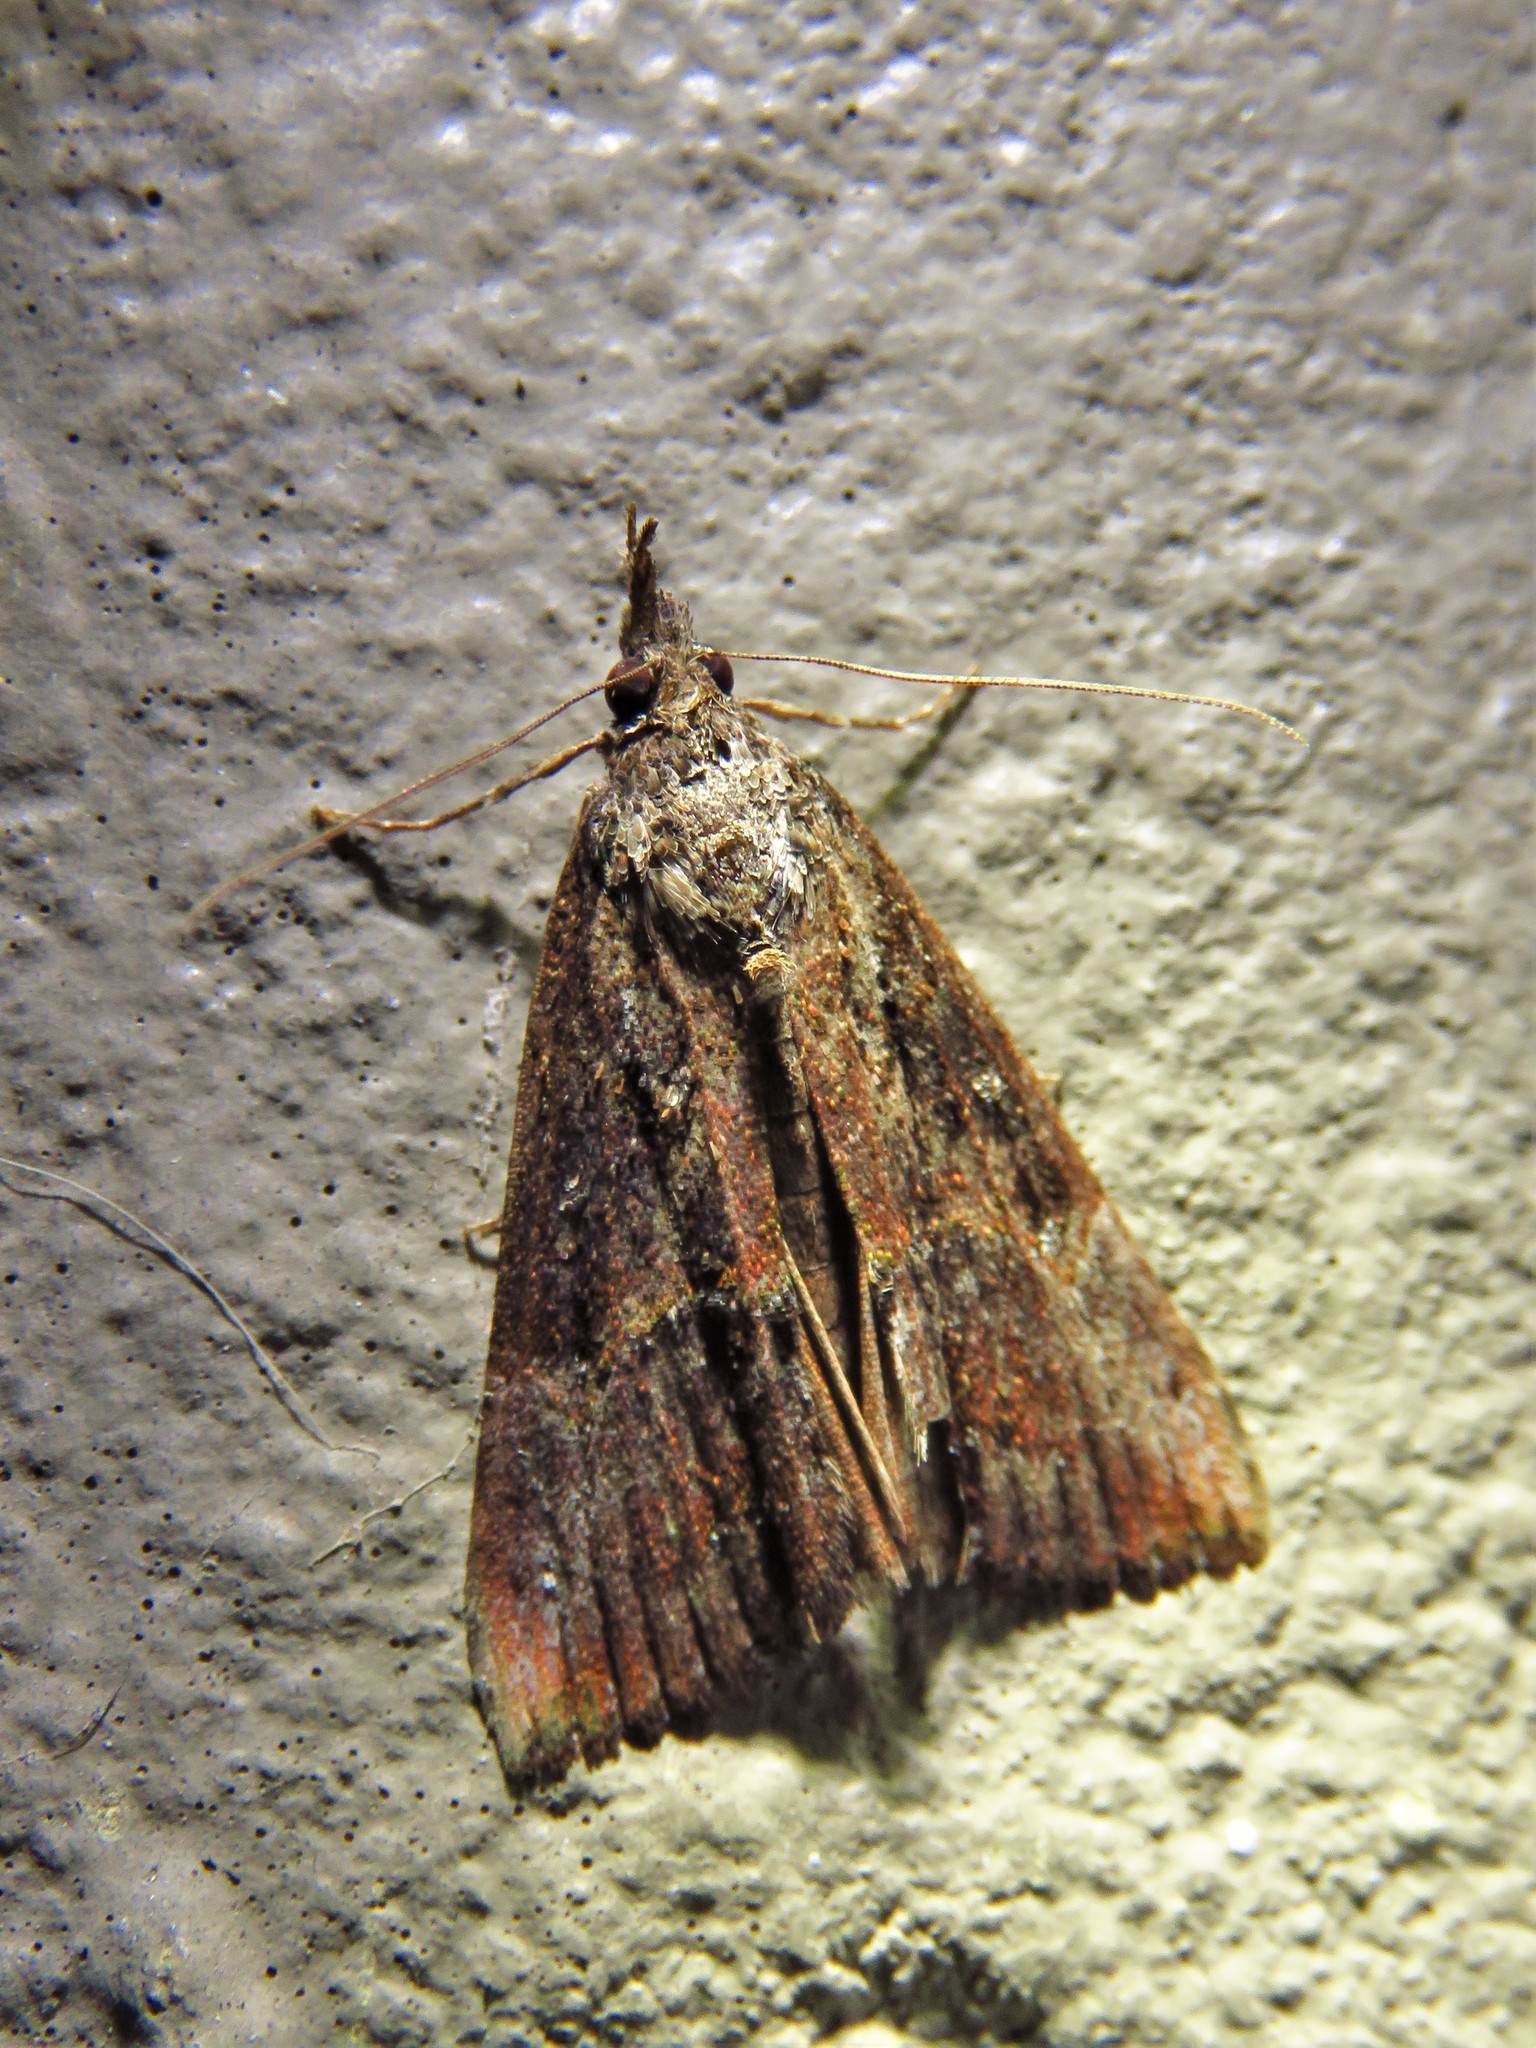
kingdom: Animalia
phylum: Arthropoda
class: Insecta
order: Lepidoptera
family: Erebidae
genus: Hypena
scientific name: Hypena scabra
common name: Green cloverworm
